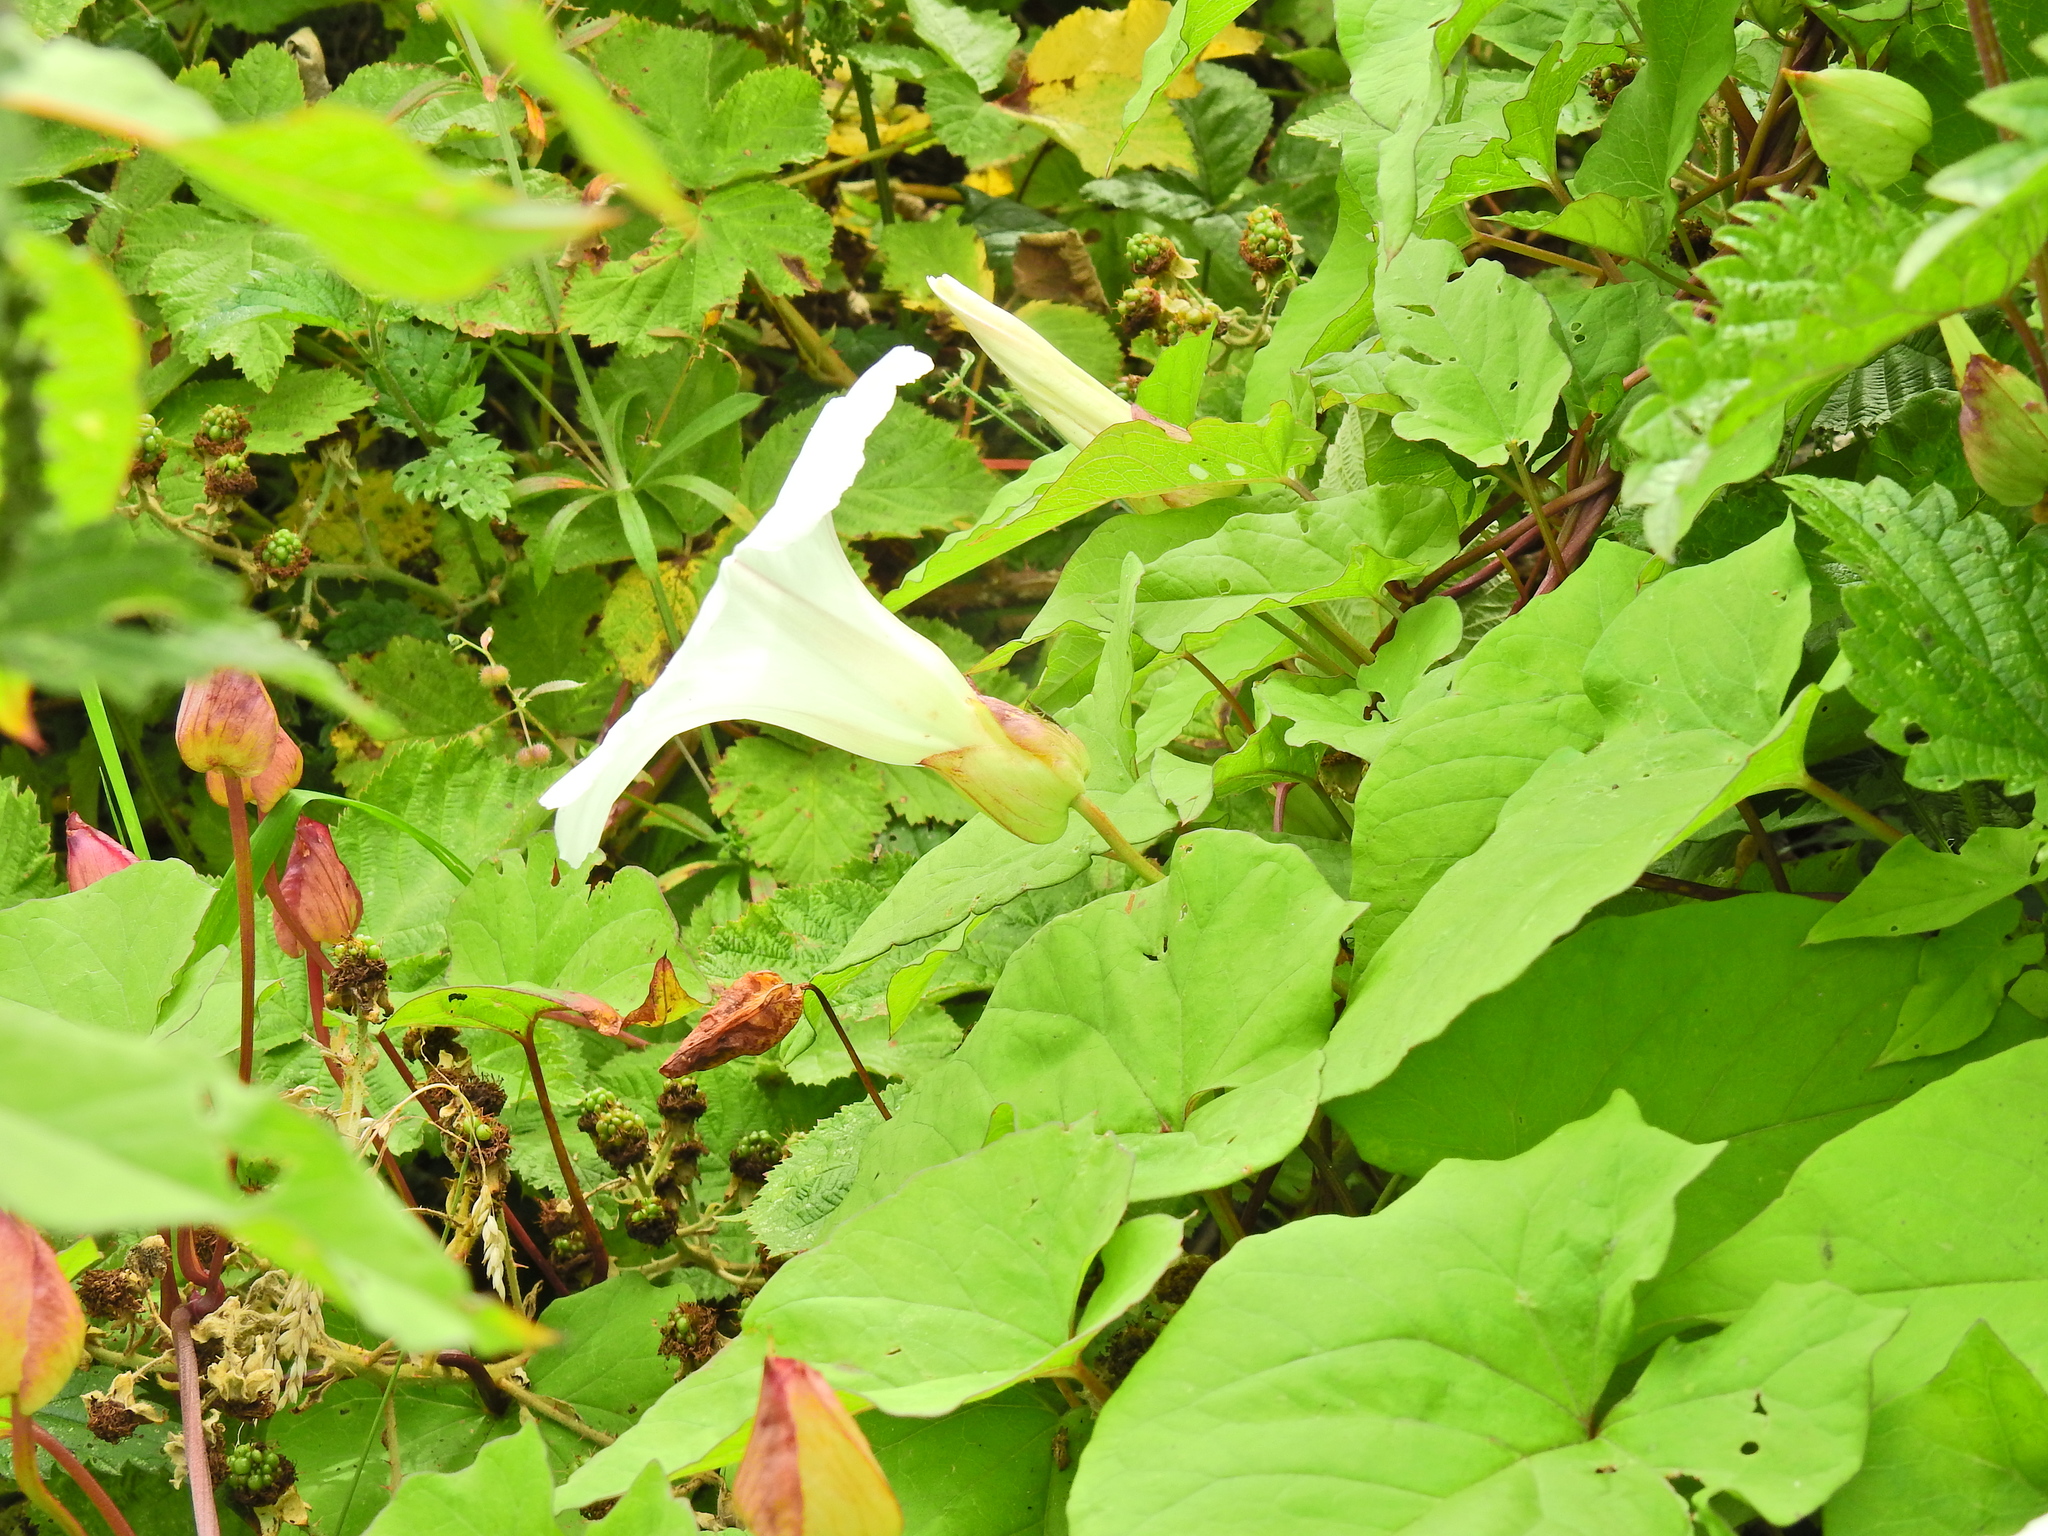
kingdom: Plantae
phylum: Tracheophyta
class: Magnoliopsida
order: Solanales
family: Convolvulaceae
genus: Calystegia
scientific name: Calystegia silvatica
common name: Large bindweed
